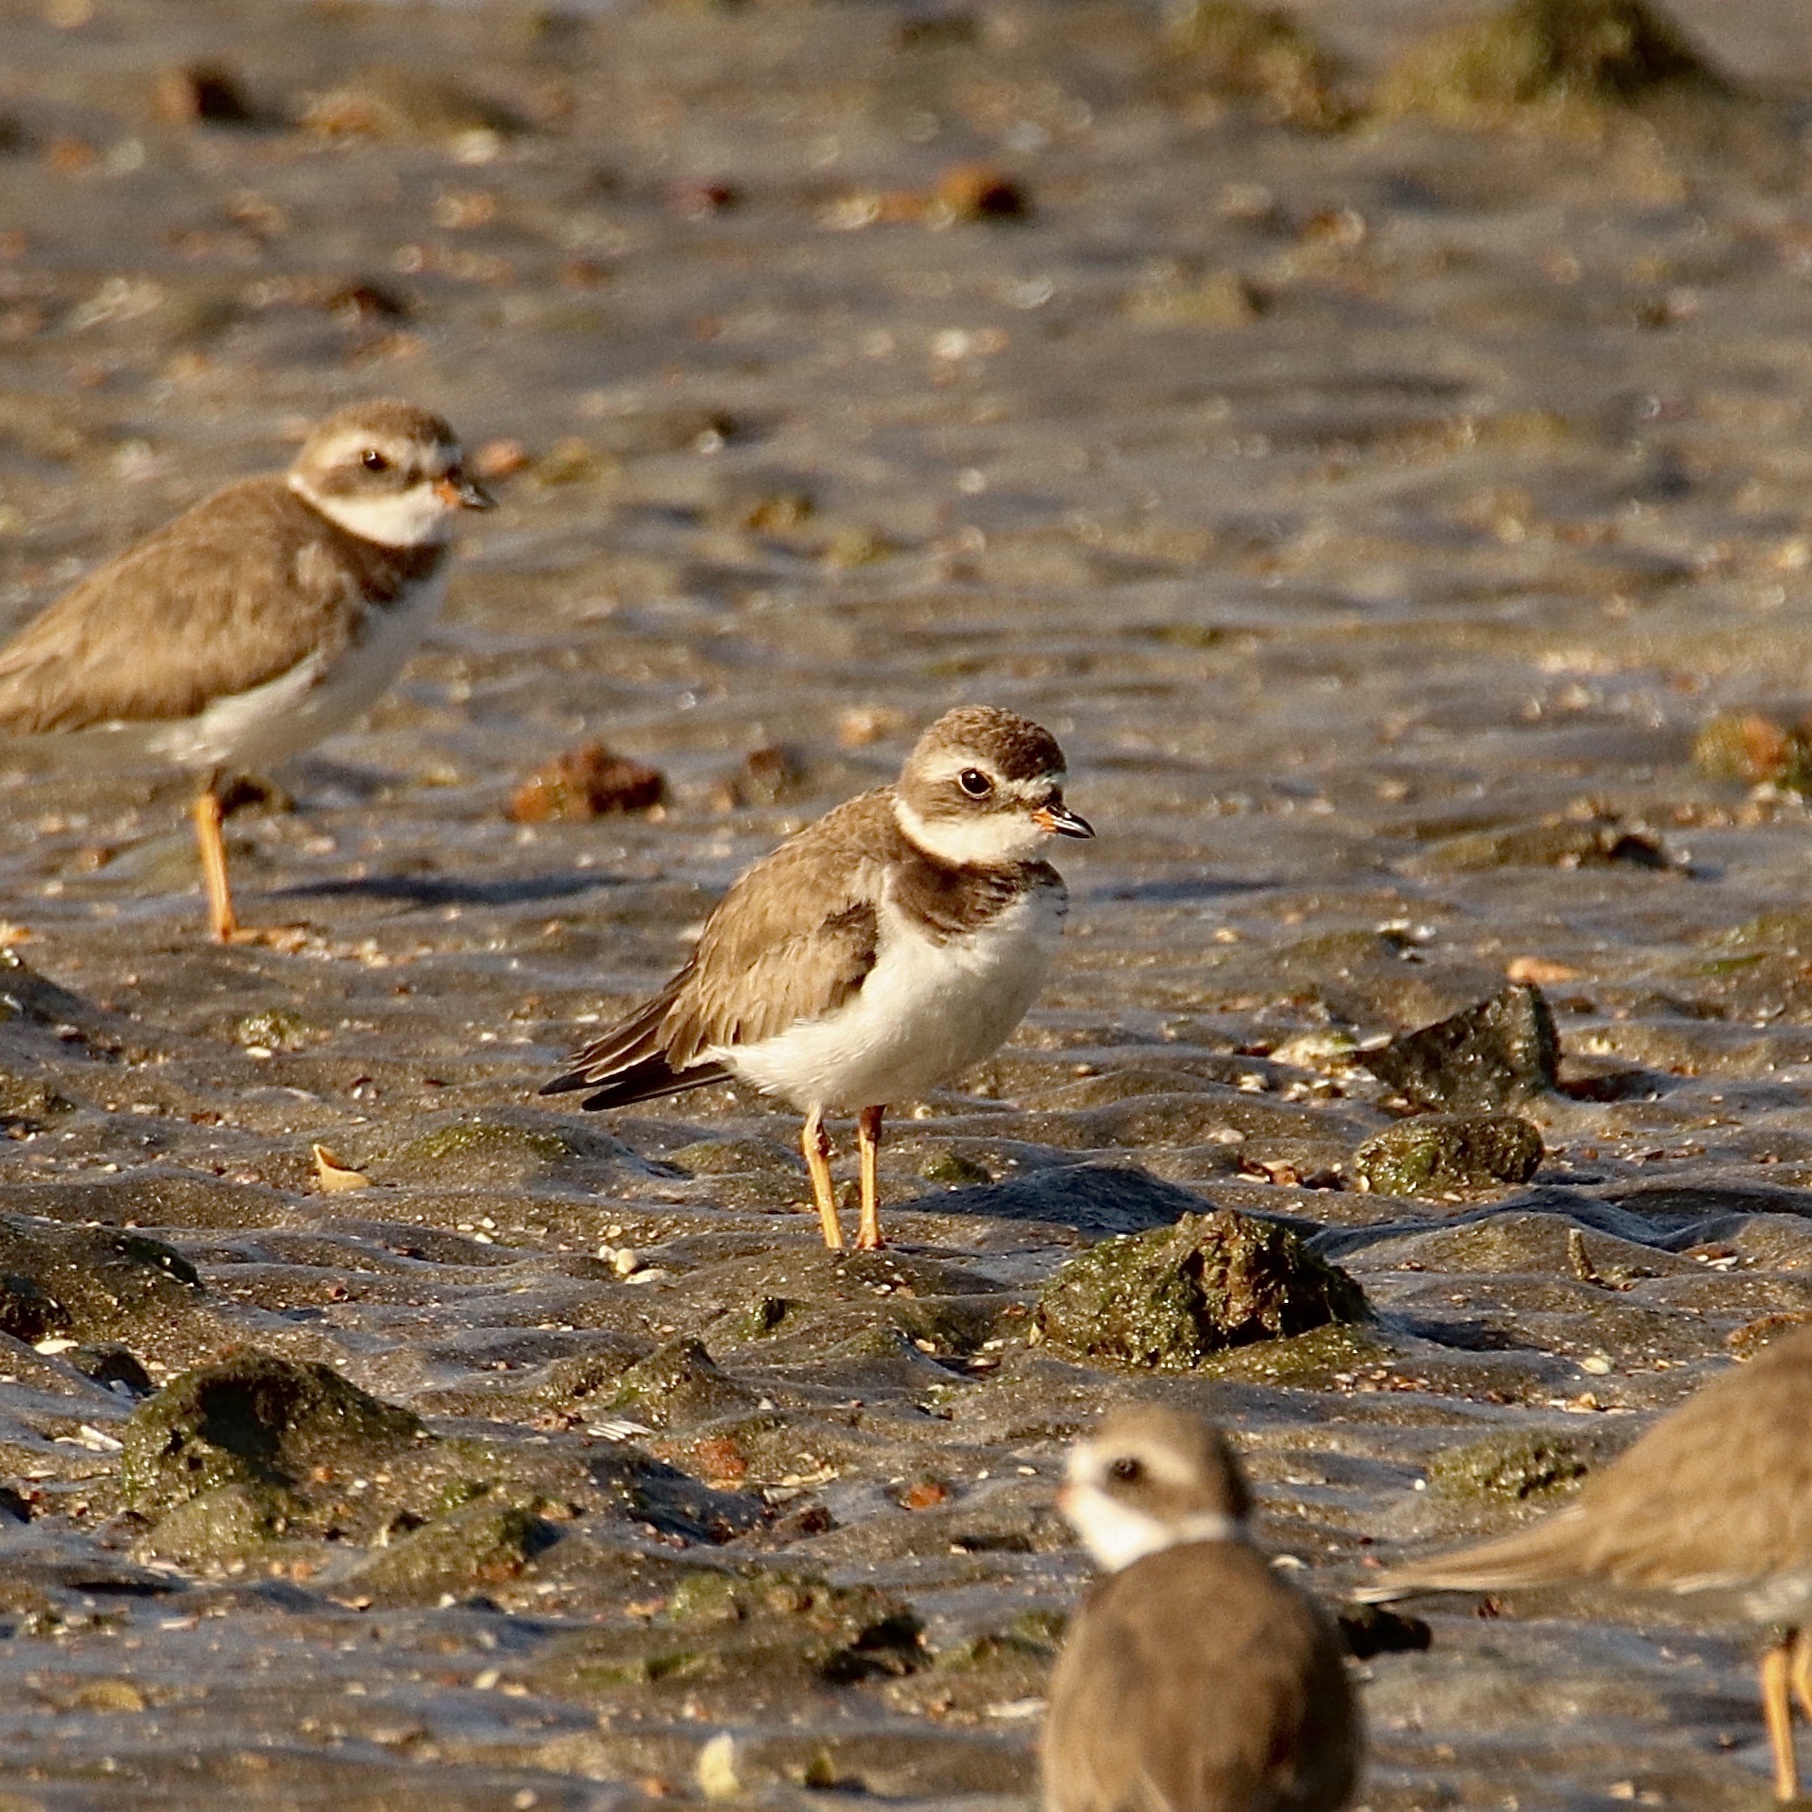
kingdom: Animalia
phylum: Chordata
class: Aves
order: Charadriiformes
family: Charadriidae
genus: Charadrius
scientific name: Charadrius semipalmatus
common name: Semipalmated plover
